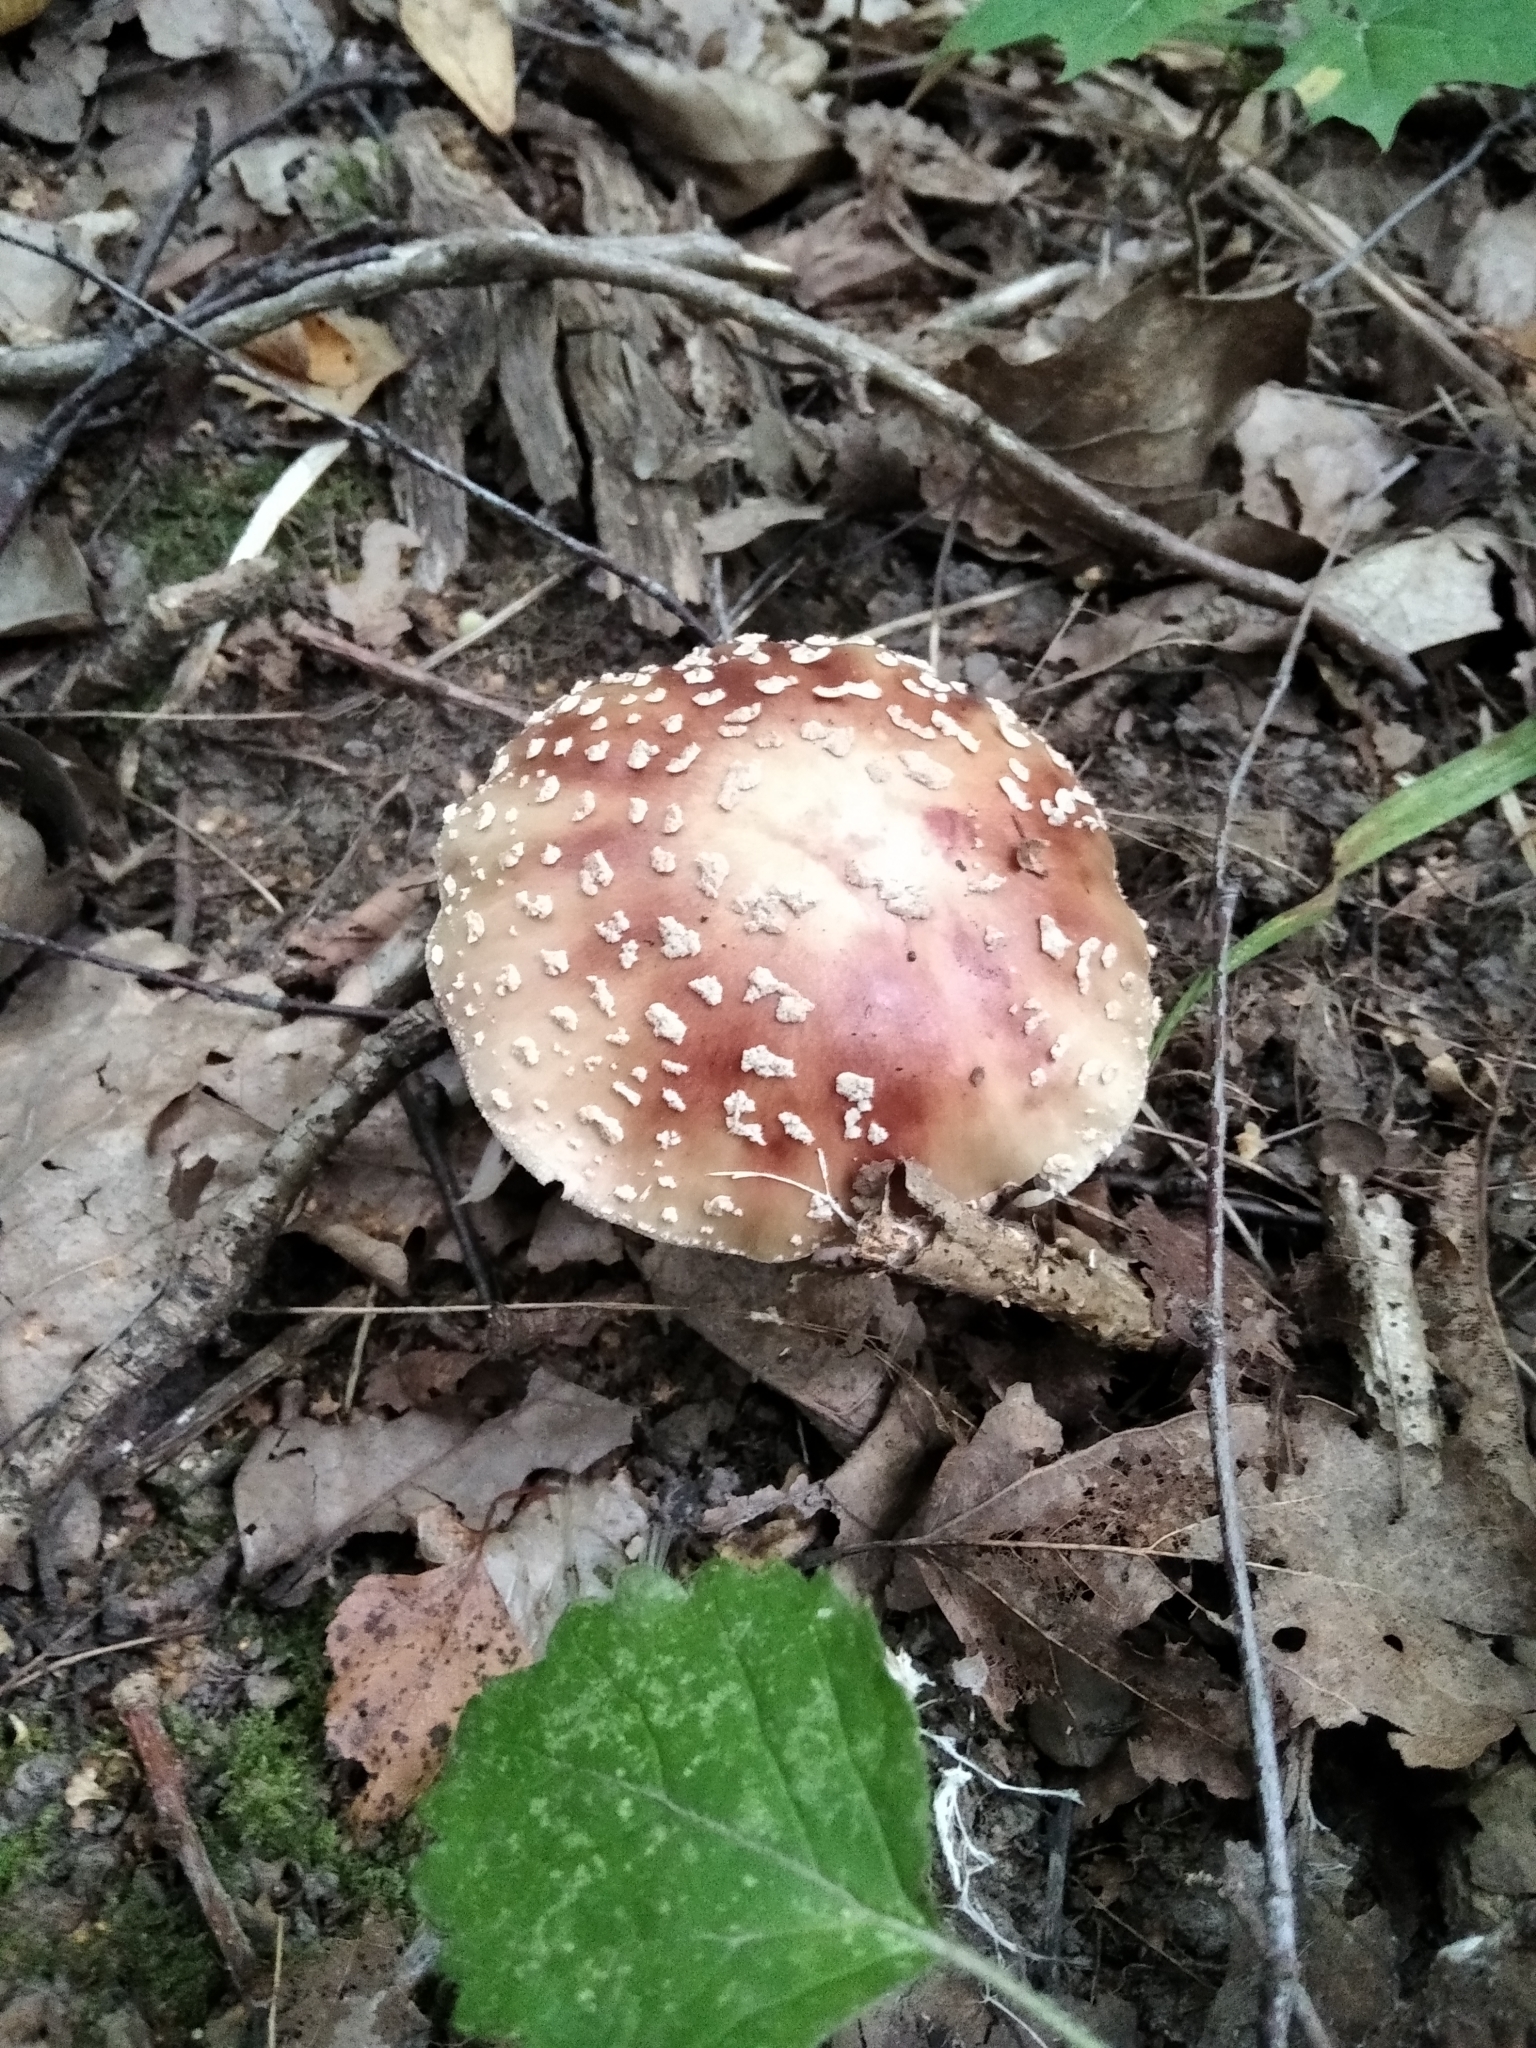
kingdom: Fungi
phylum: Basidiomycota
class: Agaricomycetes
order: Agaricales
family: Amanitaceae
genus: Amanita
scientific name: Amanita rubescens
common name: Blusher
